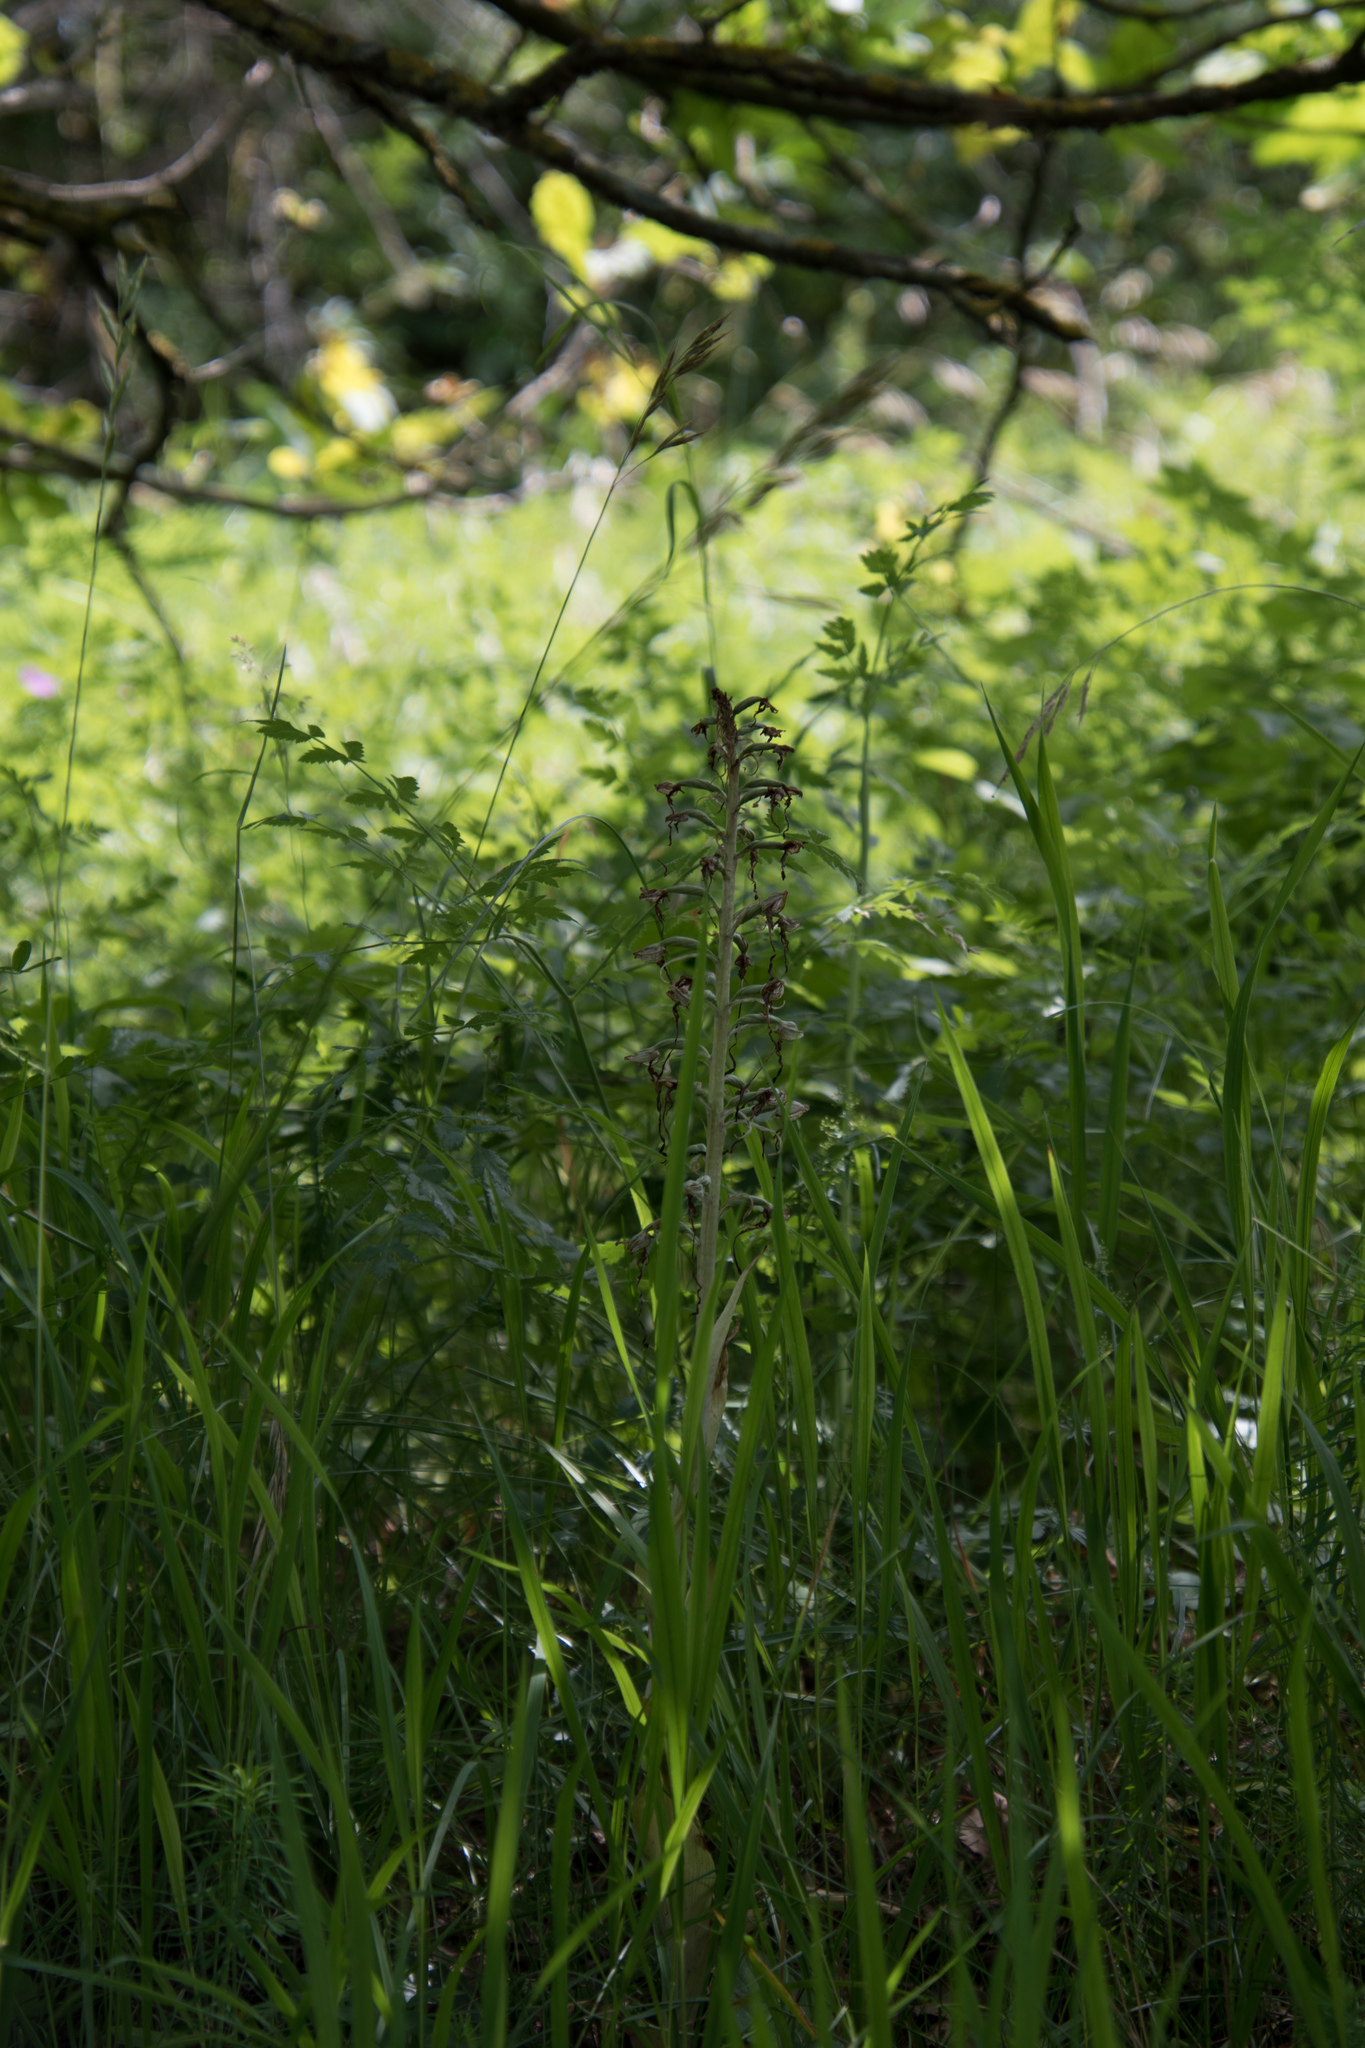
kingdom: Plantae
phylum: Tracheophyta
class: Liliopsida
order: Asparagales
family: Orchidaceae
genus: Himantoglossum
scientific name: Himantoglossum hircinum
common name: Lizard orchid
